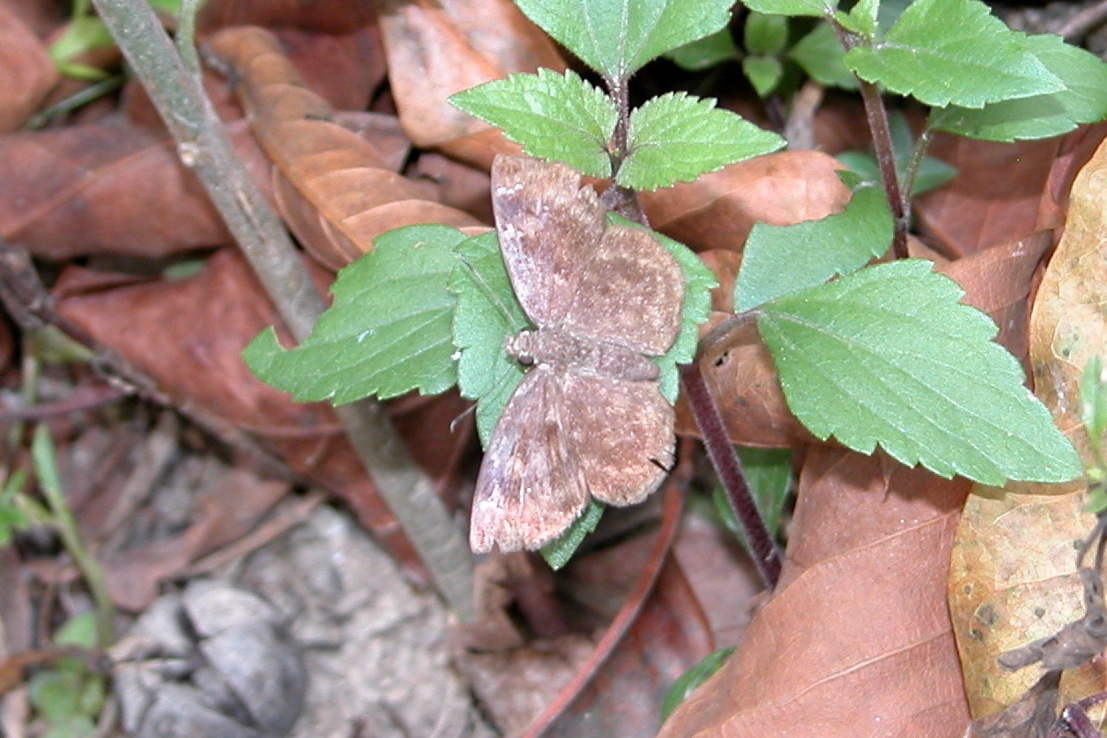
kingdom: Animalia
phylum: Arthropoda
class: Insecta
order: Lepidoptera
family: Hesperiidae
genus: Sarangesa
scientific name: Sarangesa dasahara
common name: Common small flat
